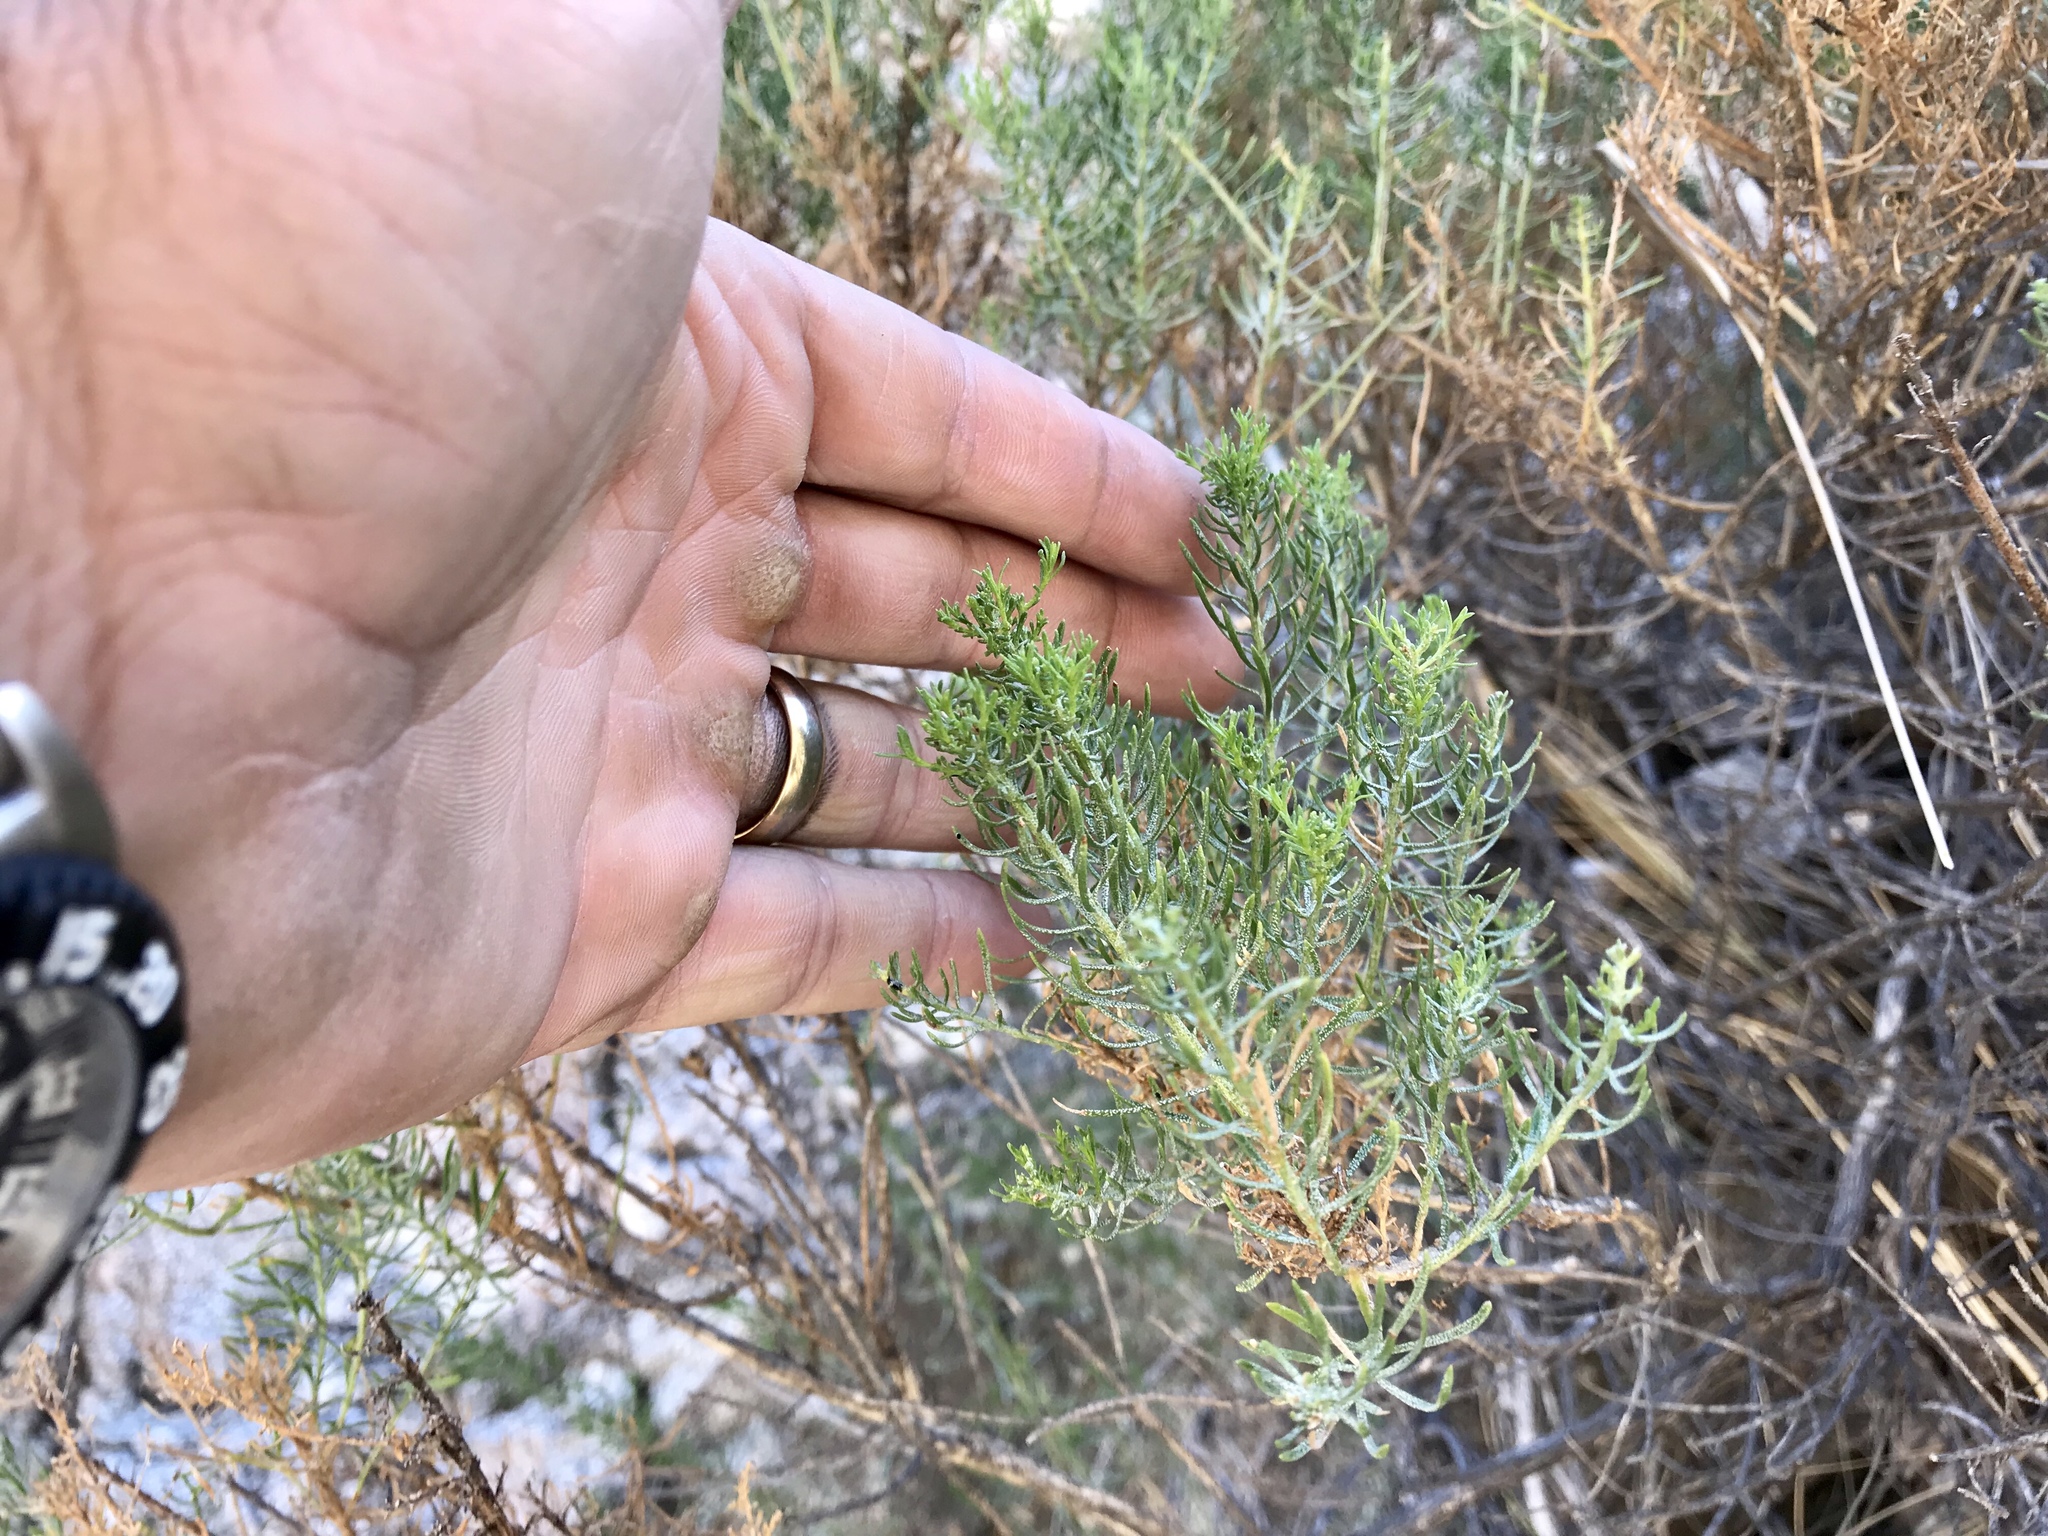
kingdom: Plantae
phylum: Tracheophyta
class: Magnoliopsida
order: Asterales
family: Asteraceae
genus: Ericameria
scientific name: Ericameria laricifolia
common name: Turpentine-bush
